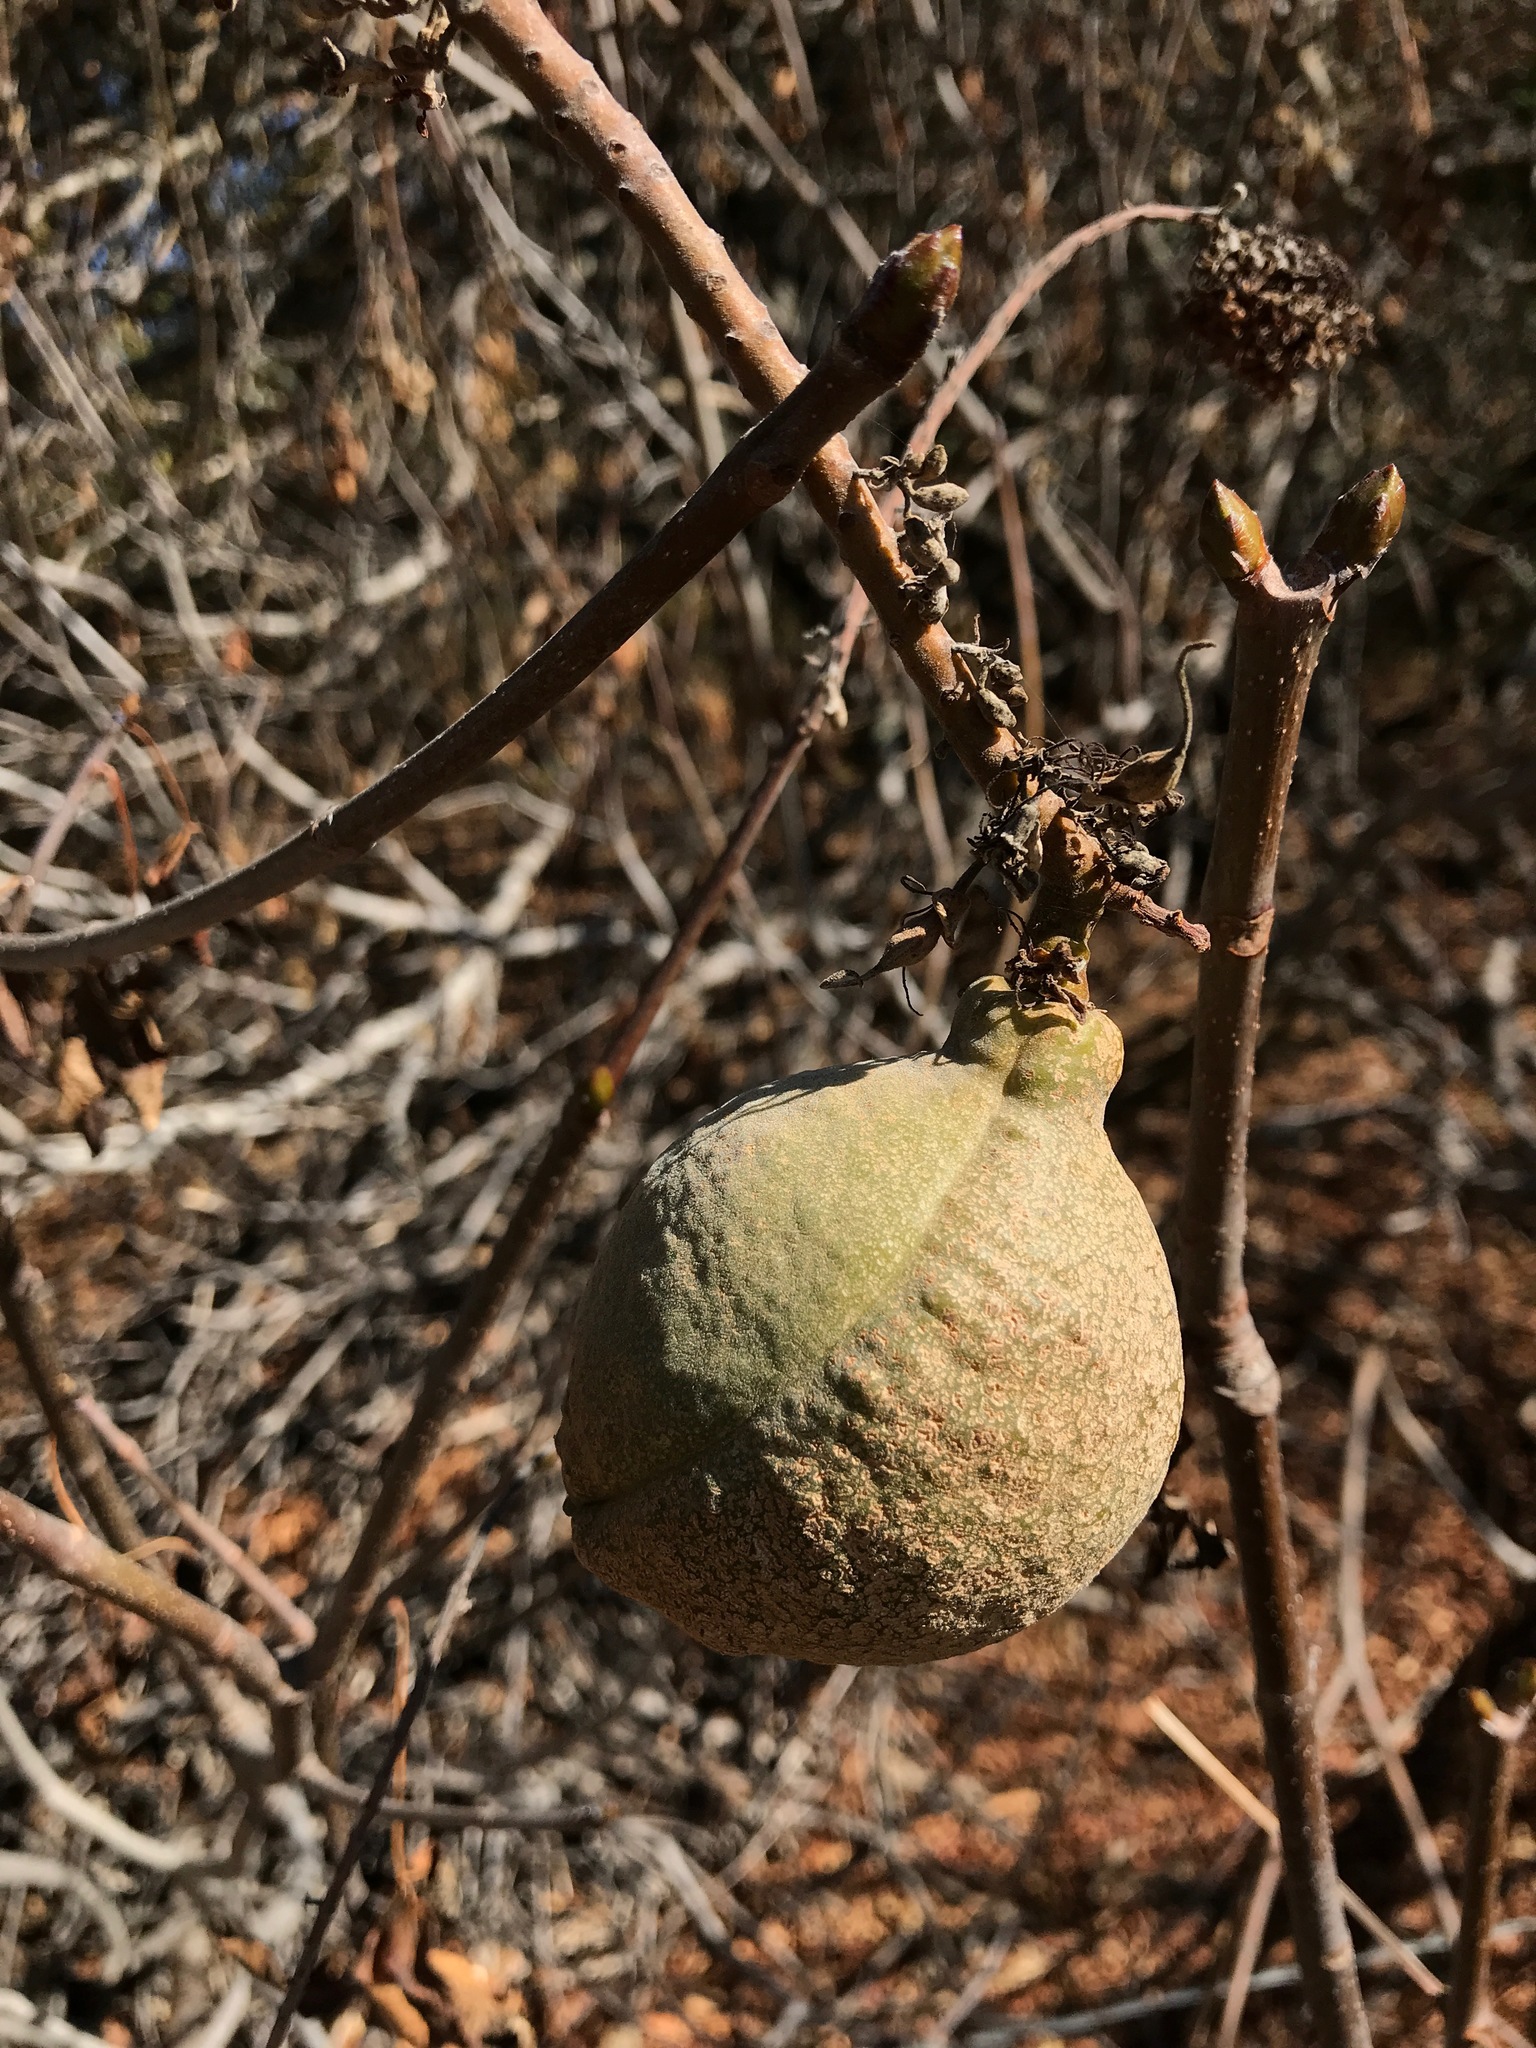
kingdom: Plantae
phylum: Tracheophyta
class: Magnoliopsida
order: Sapindales
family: Sapindaceae
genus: Aesculus
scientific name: Aesculus californica
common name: California buckeye
